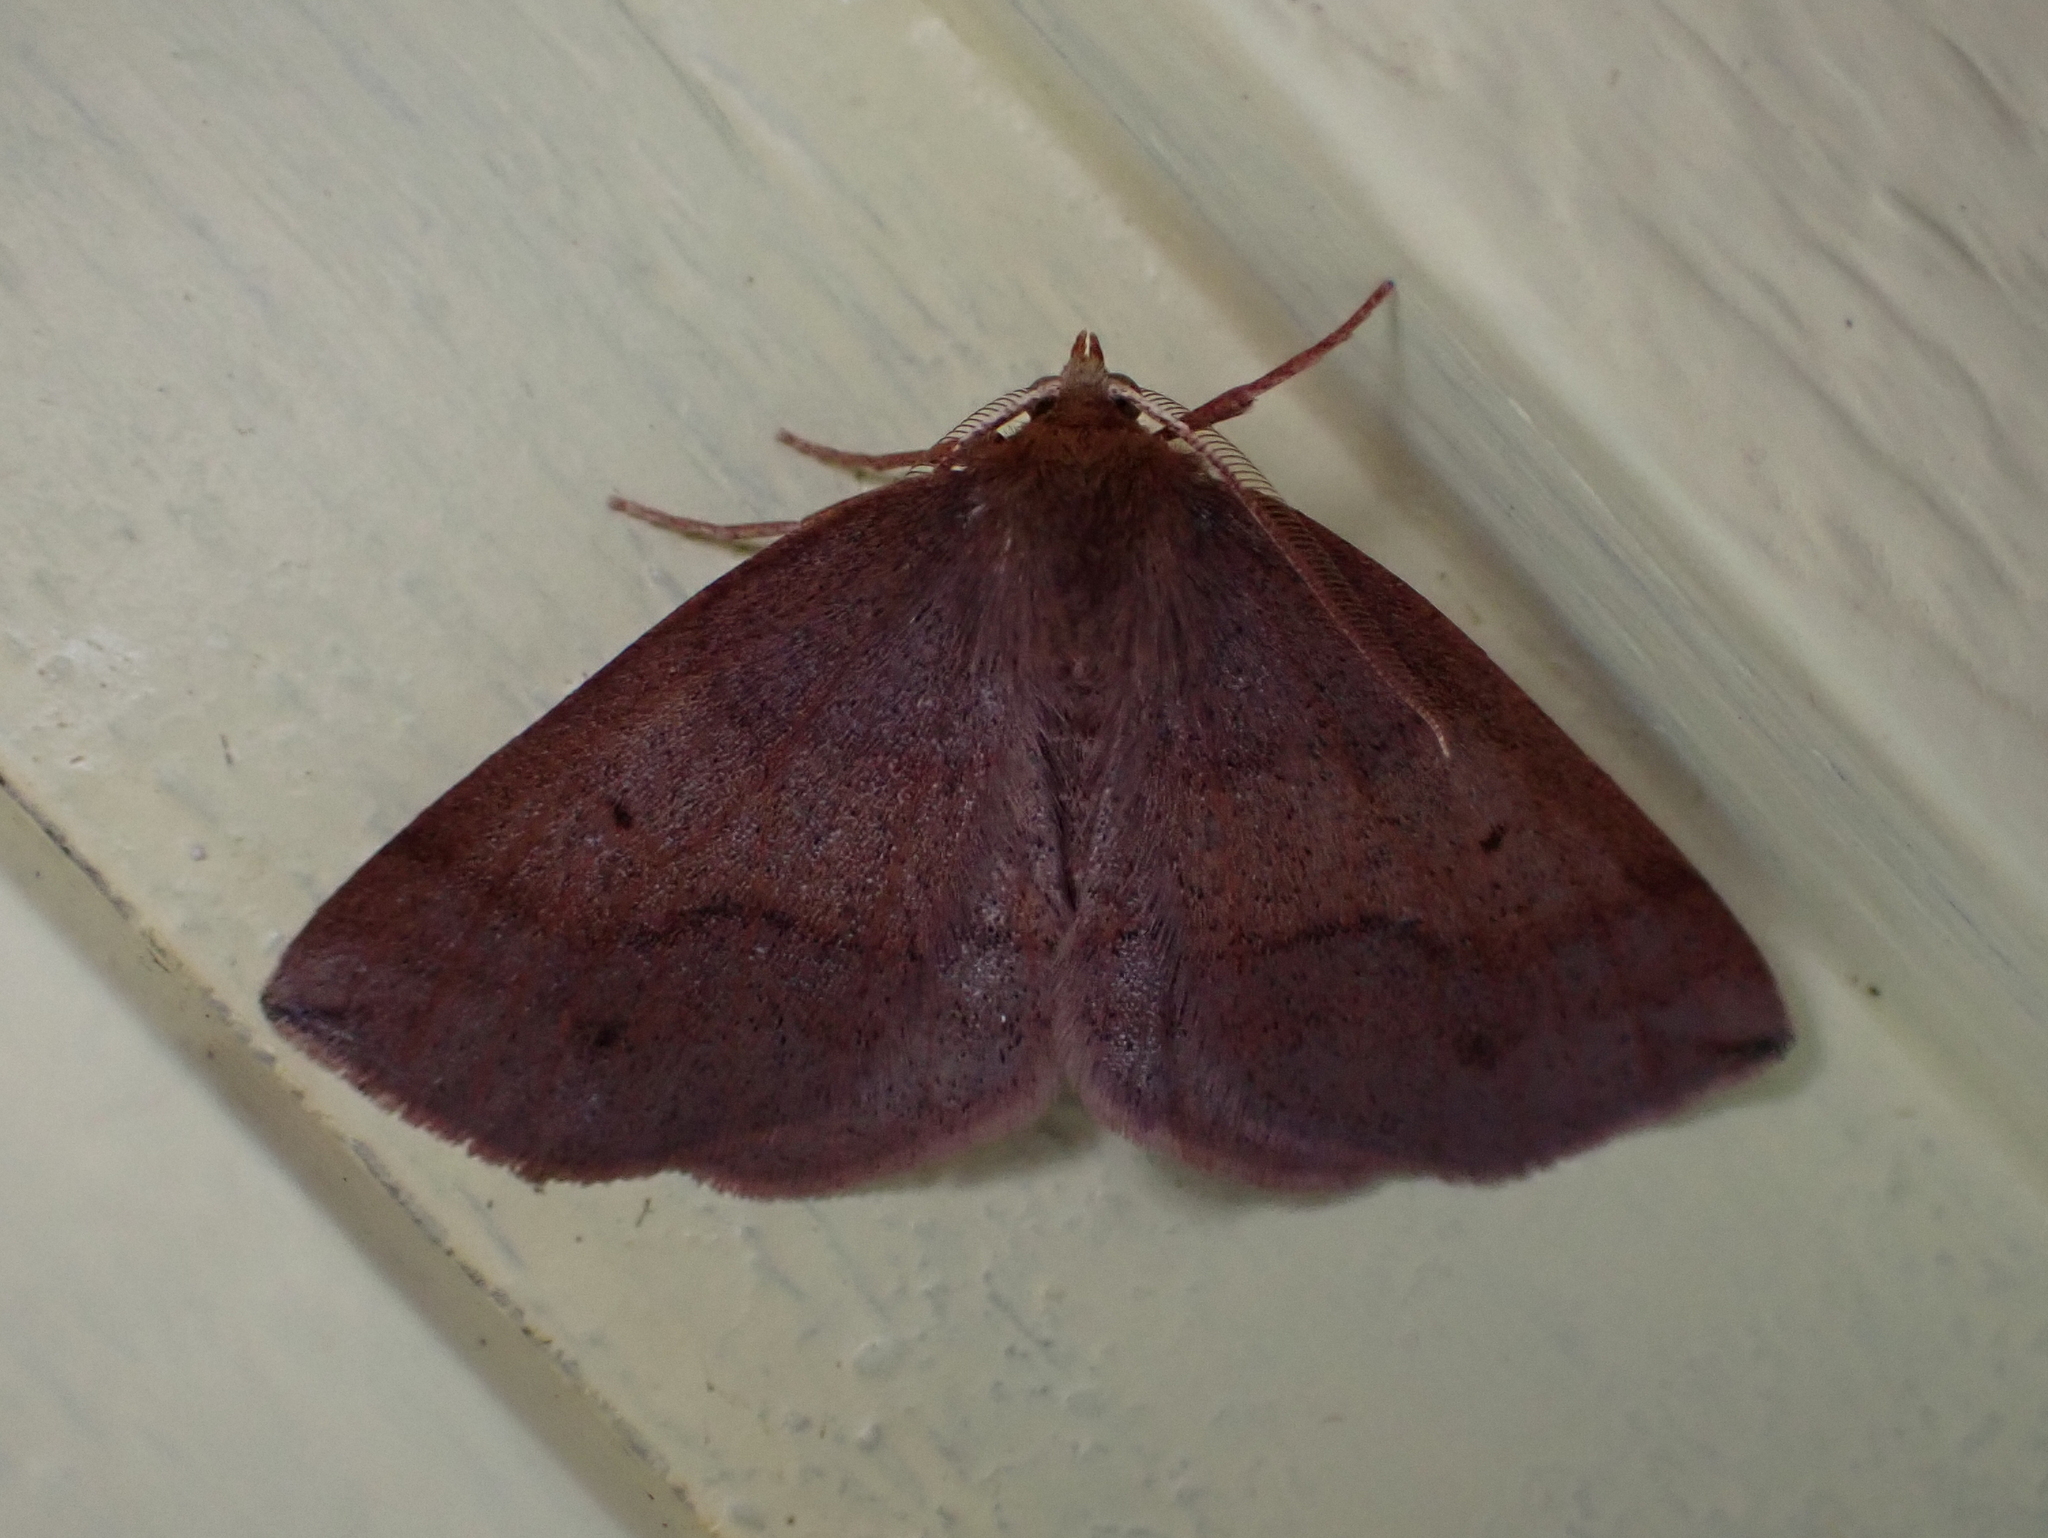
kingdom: Animalia
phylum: Arthropoda
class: Insecta
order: Lepidoptera
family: Geometridae
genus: Metarranthis
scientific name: Metarranthis amyrisaria
